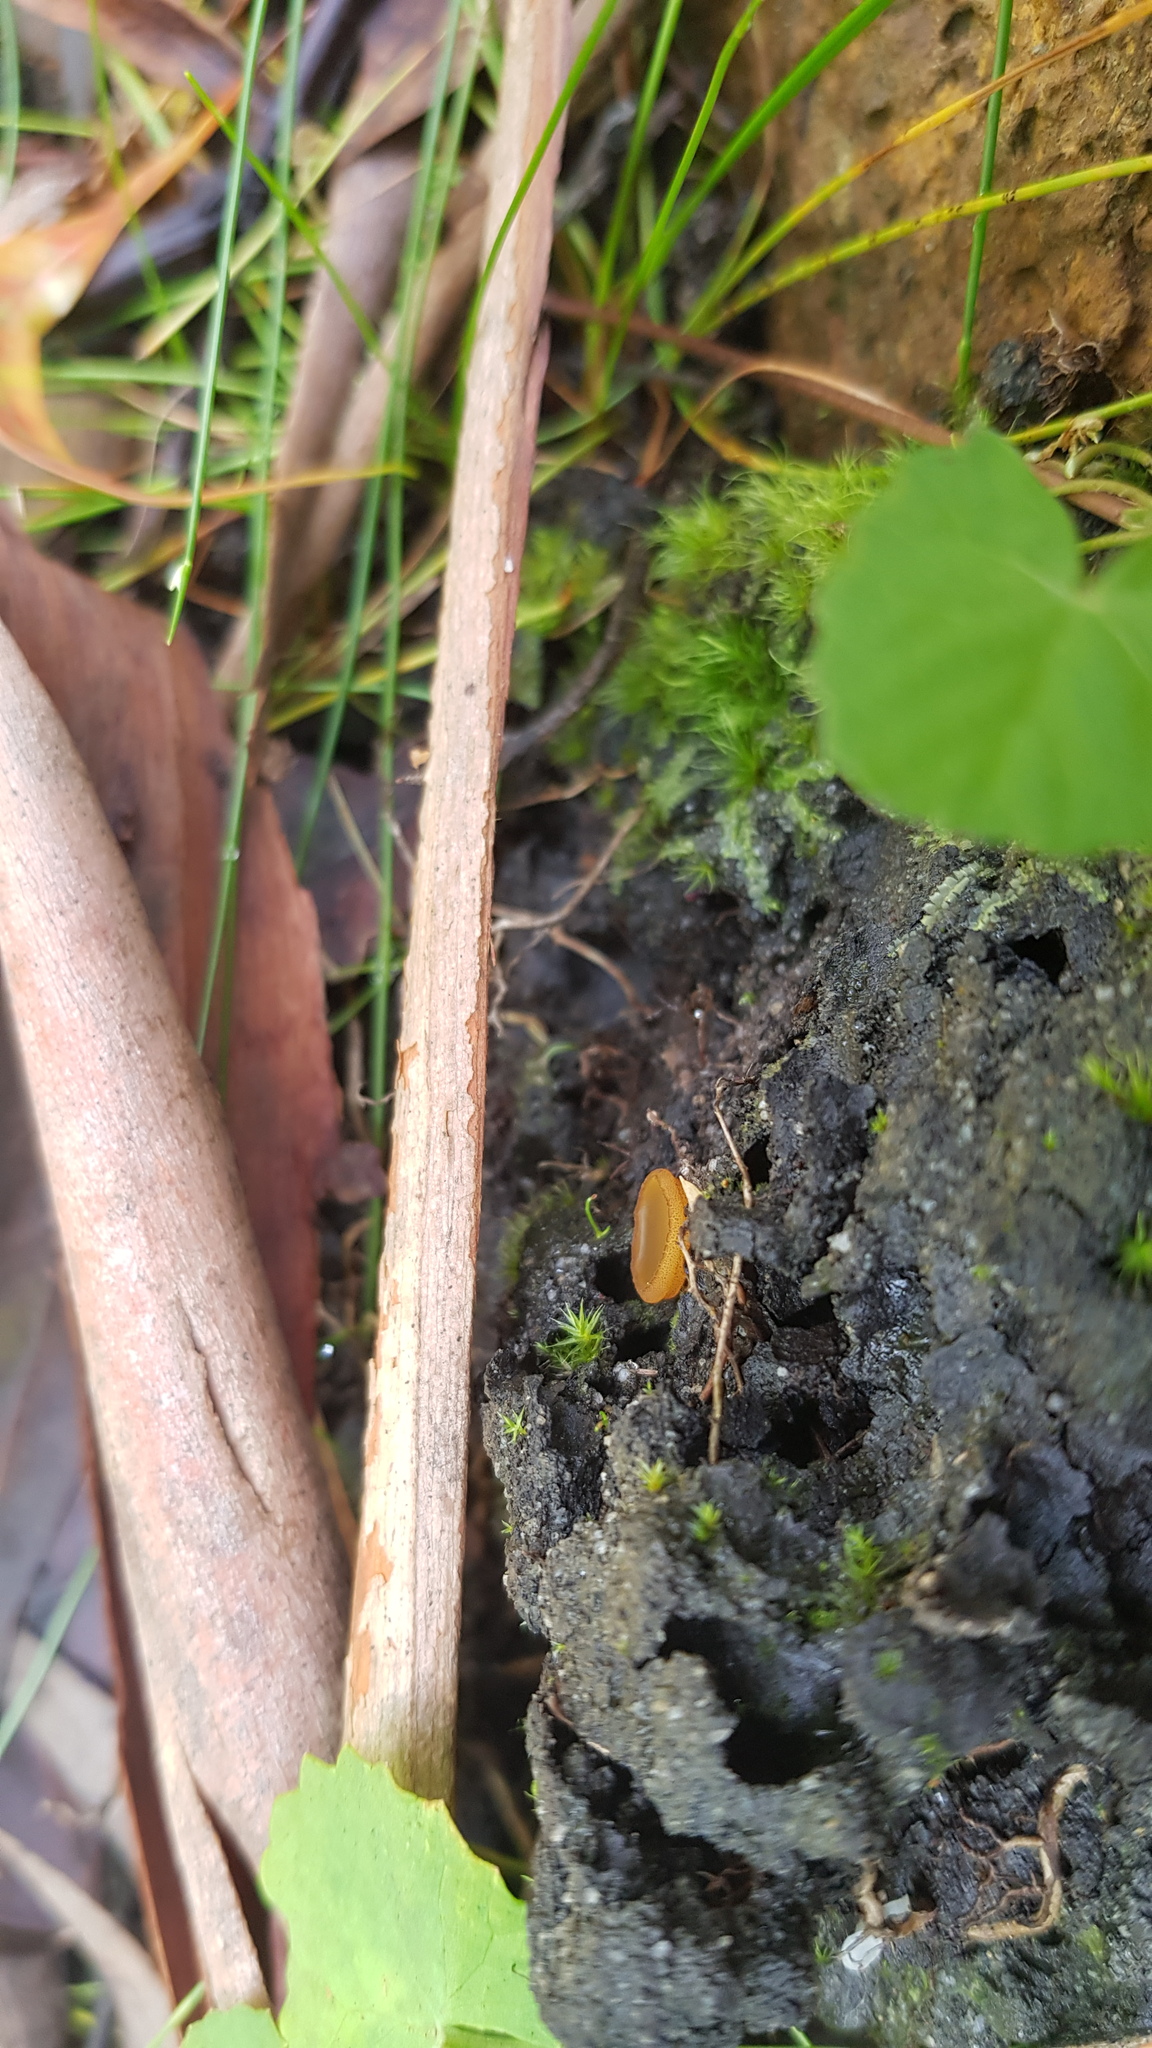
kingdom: Fungi
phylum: Ascomycota
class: Pezizomycetes
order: Pezizales
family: Pyronemataceae
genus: Aleurina
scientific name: Aleurina ferruginea
